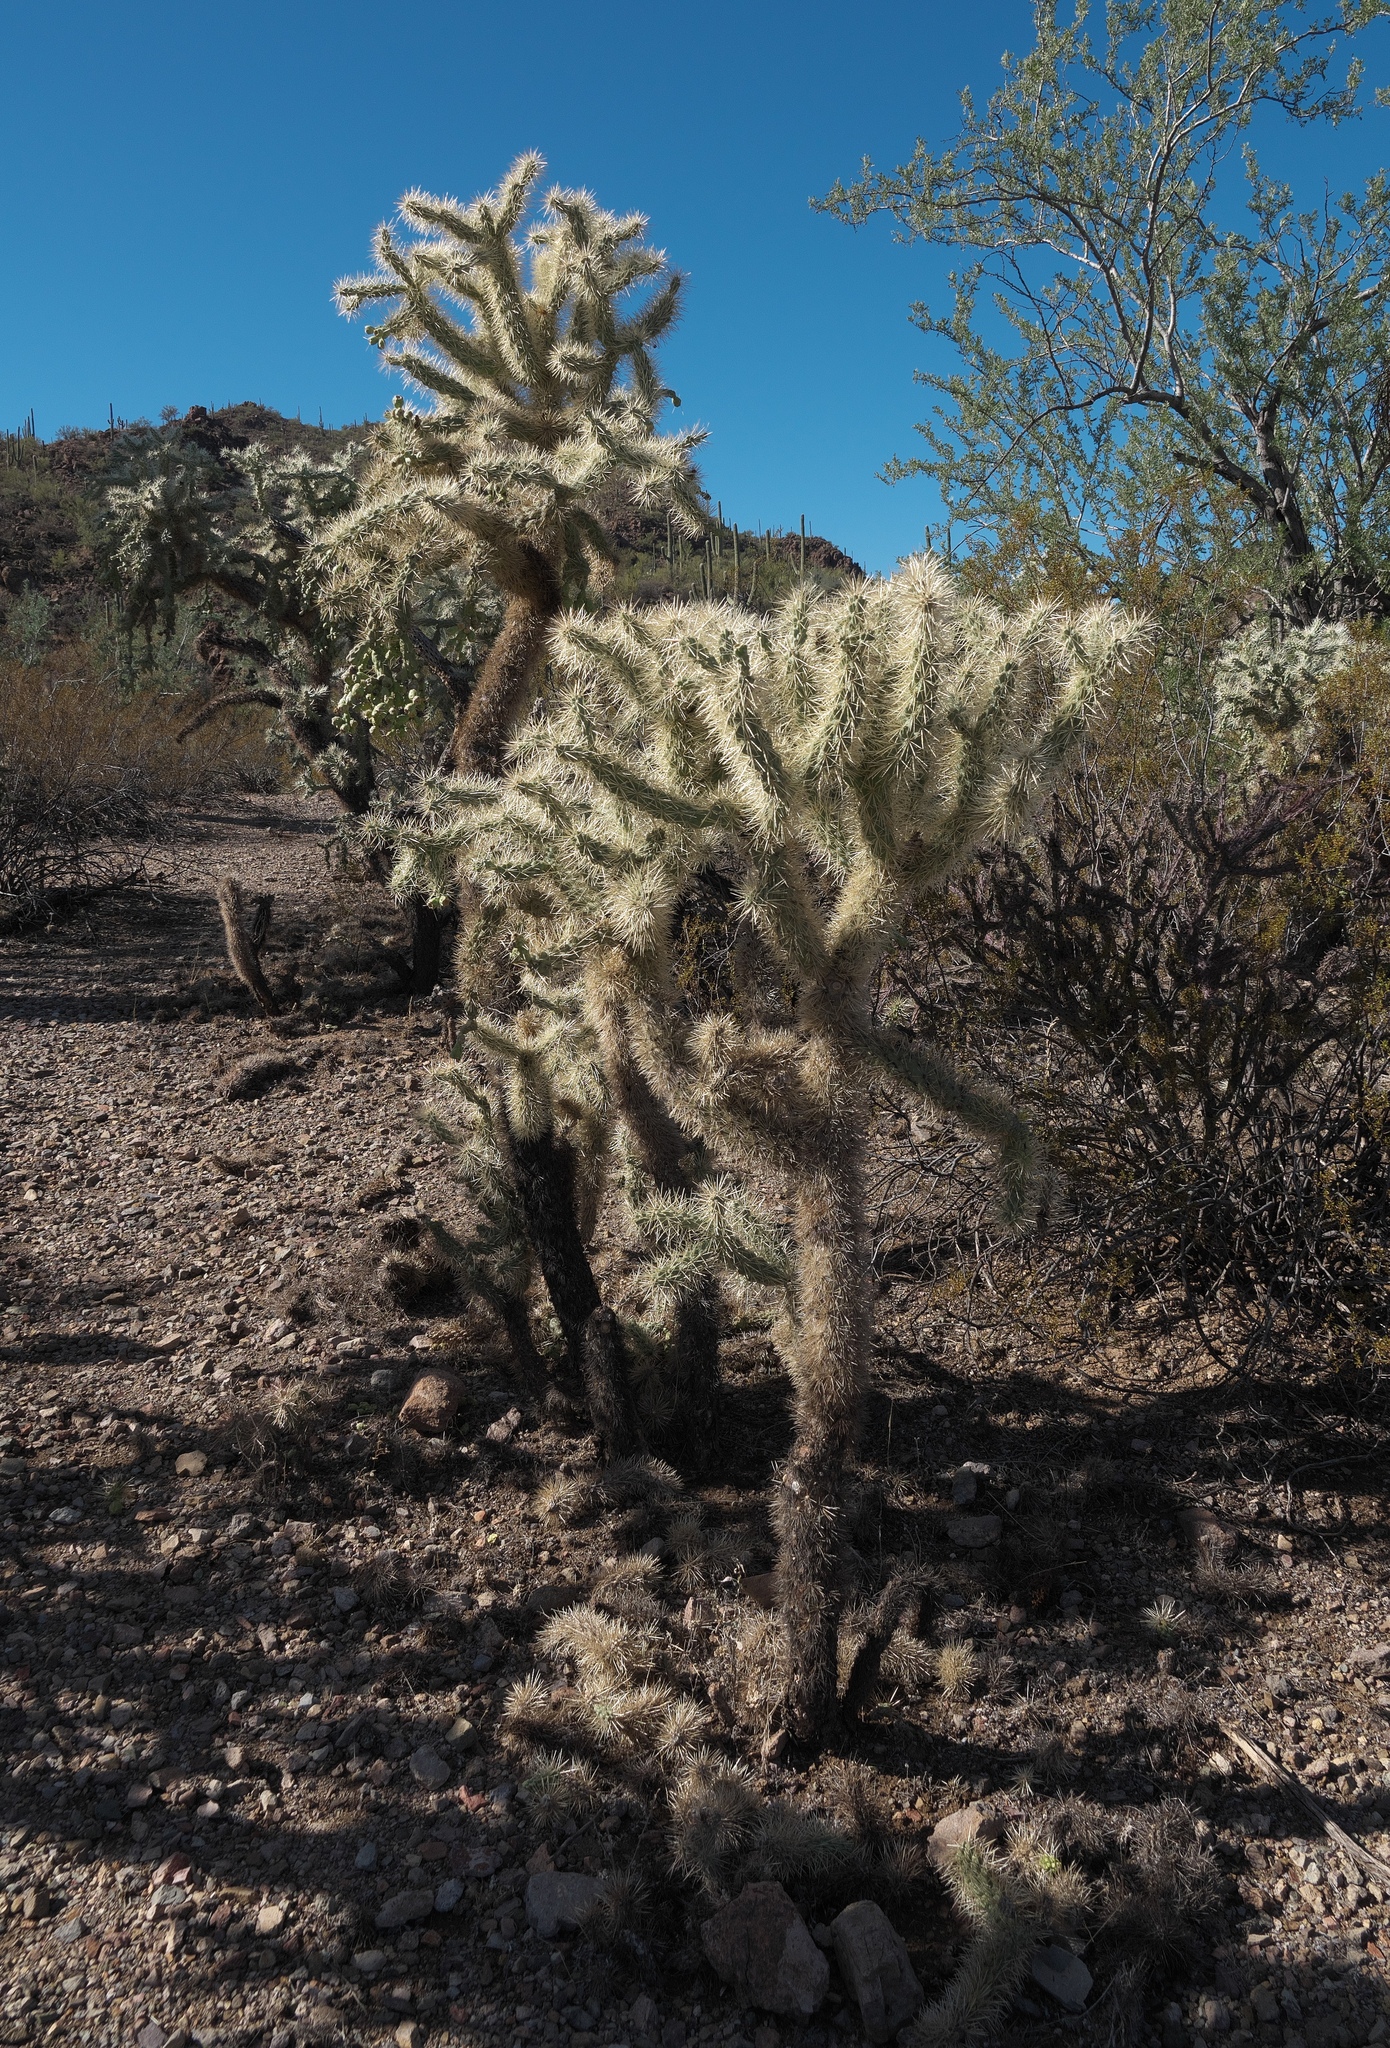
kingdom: Plantae
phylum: Tracheophyta
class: Magnoliopsida
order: Caryophyllales
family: Cactaceae
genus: Cylindropuntia
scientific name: Cylindropuntia fulgida
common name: Jumping cholla
